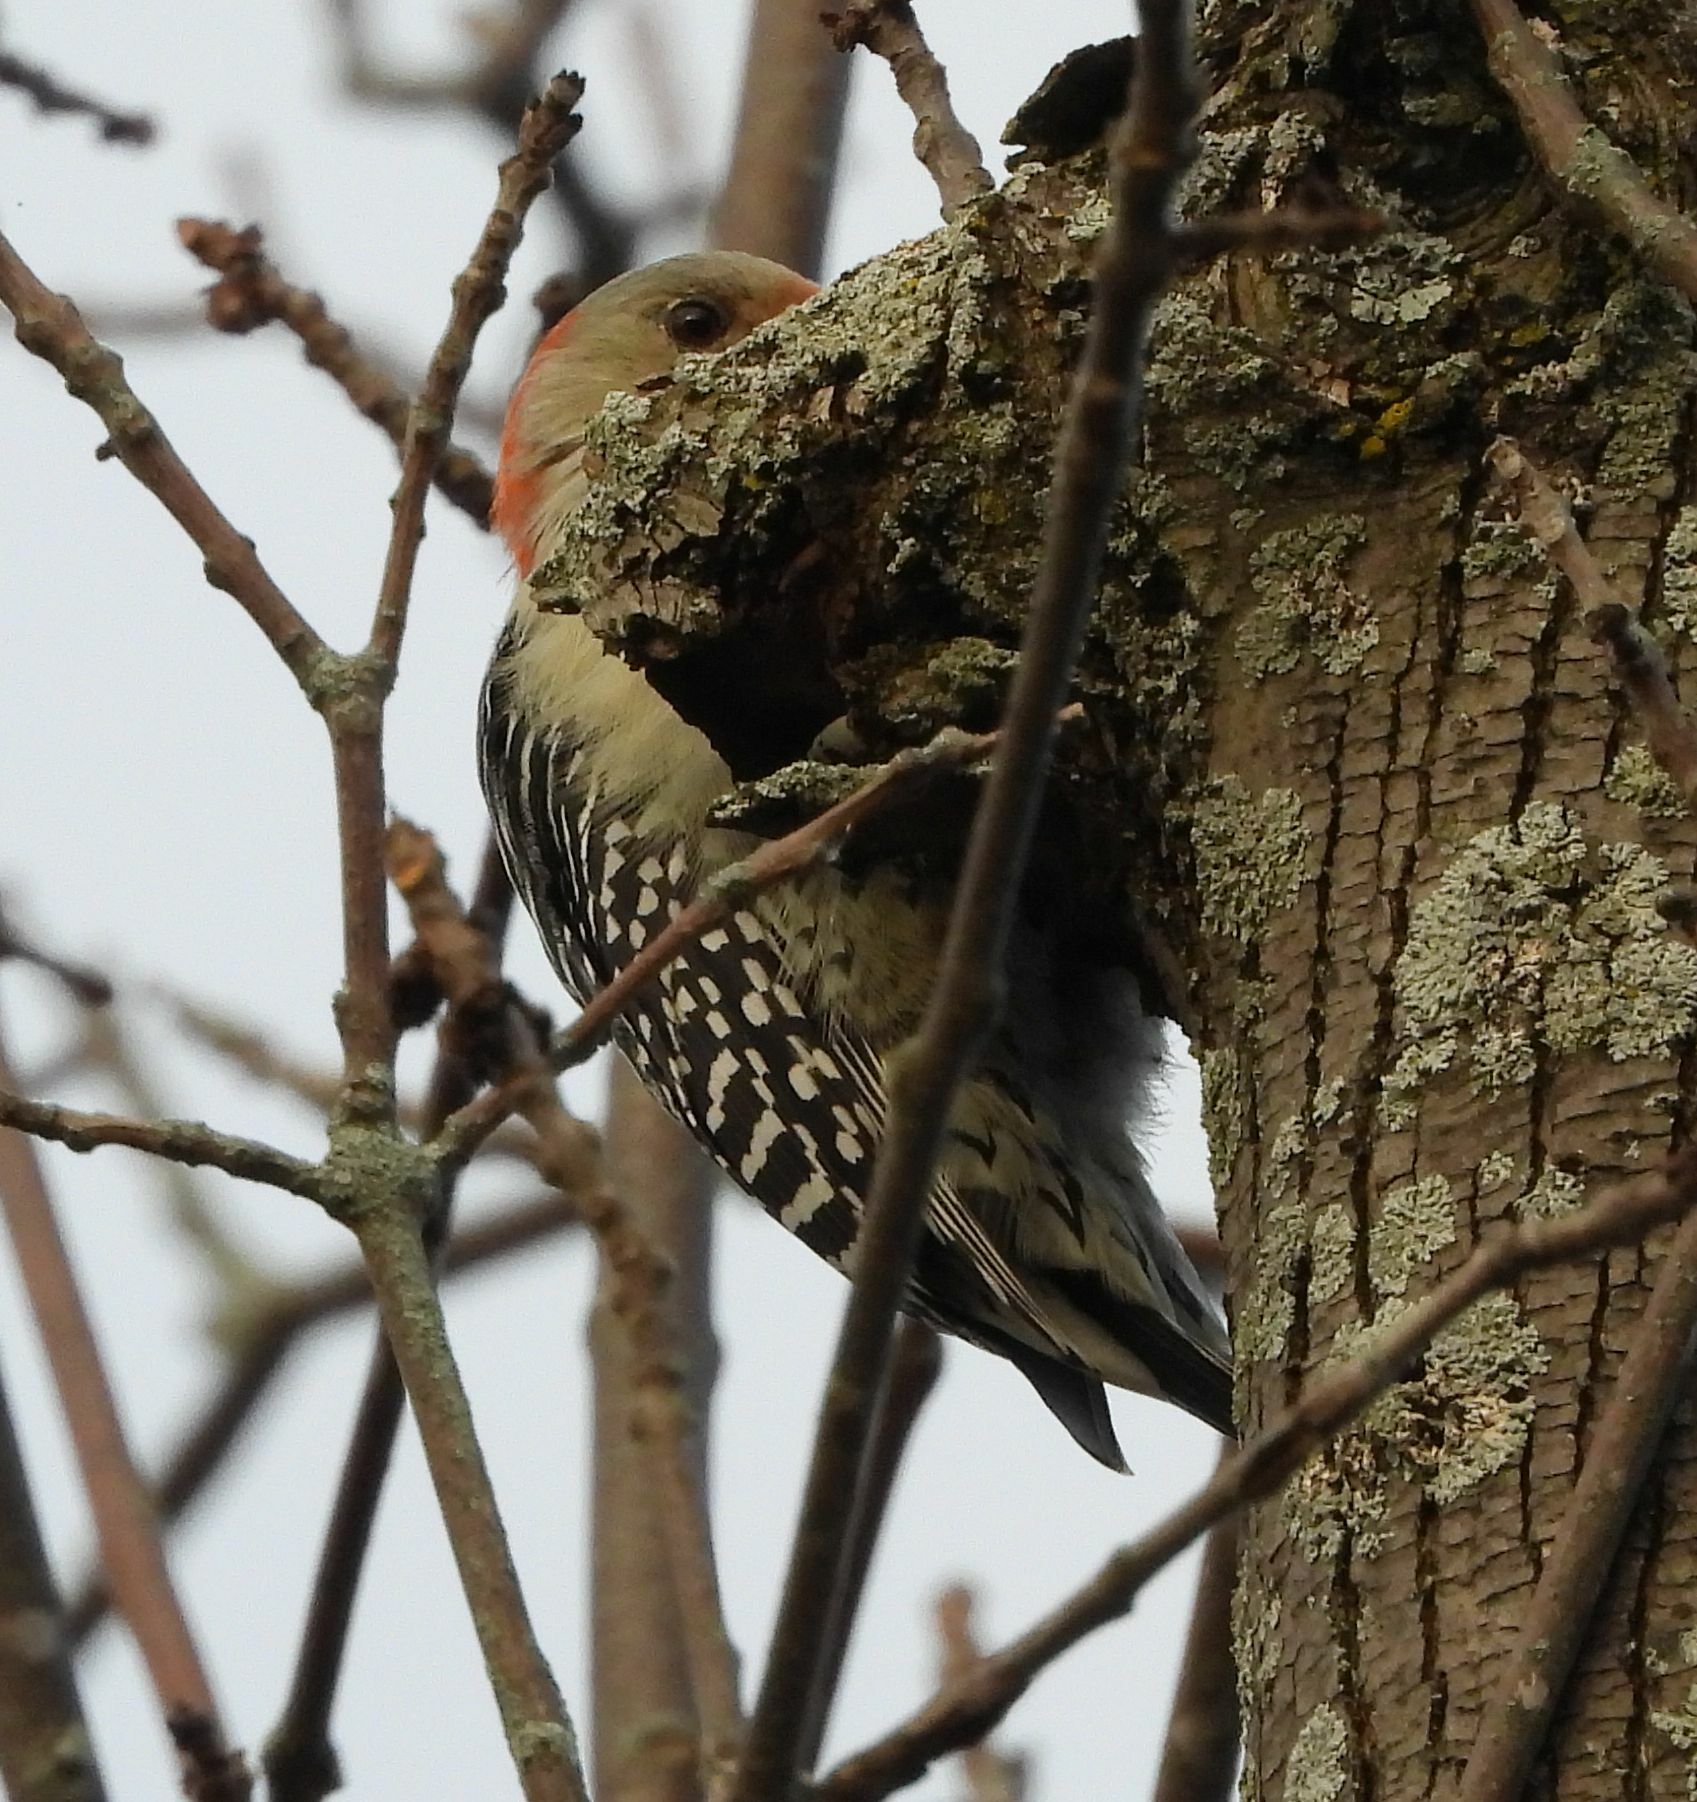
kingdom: Animalia
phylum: Chordata
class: Aves
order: Piciformes
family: Picidae
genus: Melanerpes
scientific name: Melanerpes carolinus
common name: Red-bellied woodpecker
